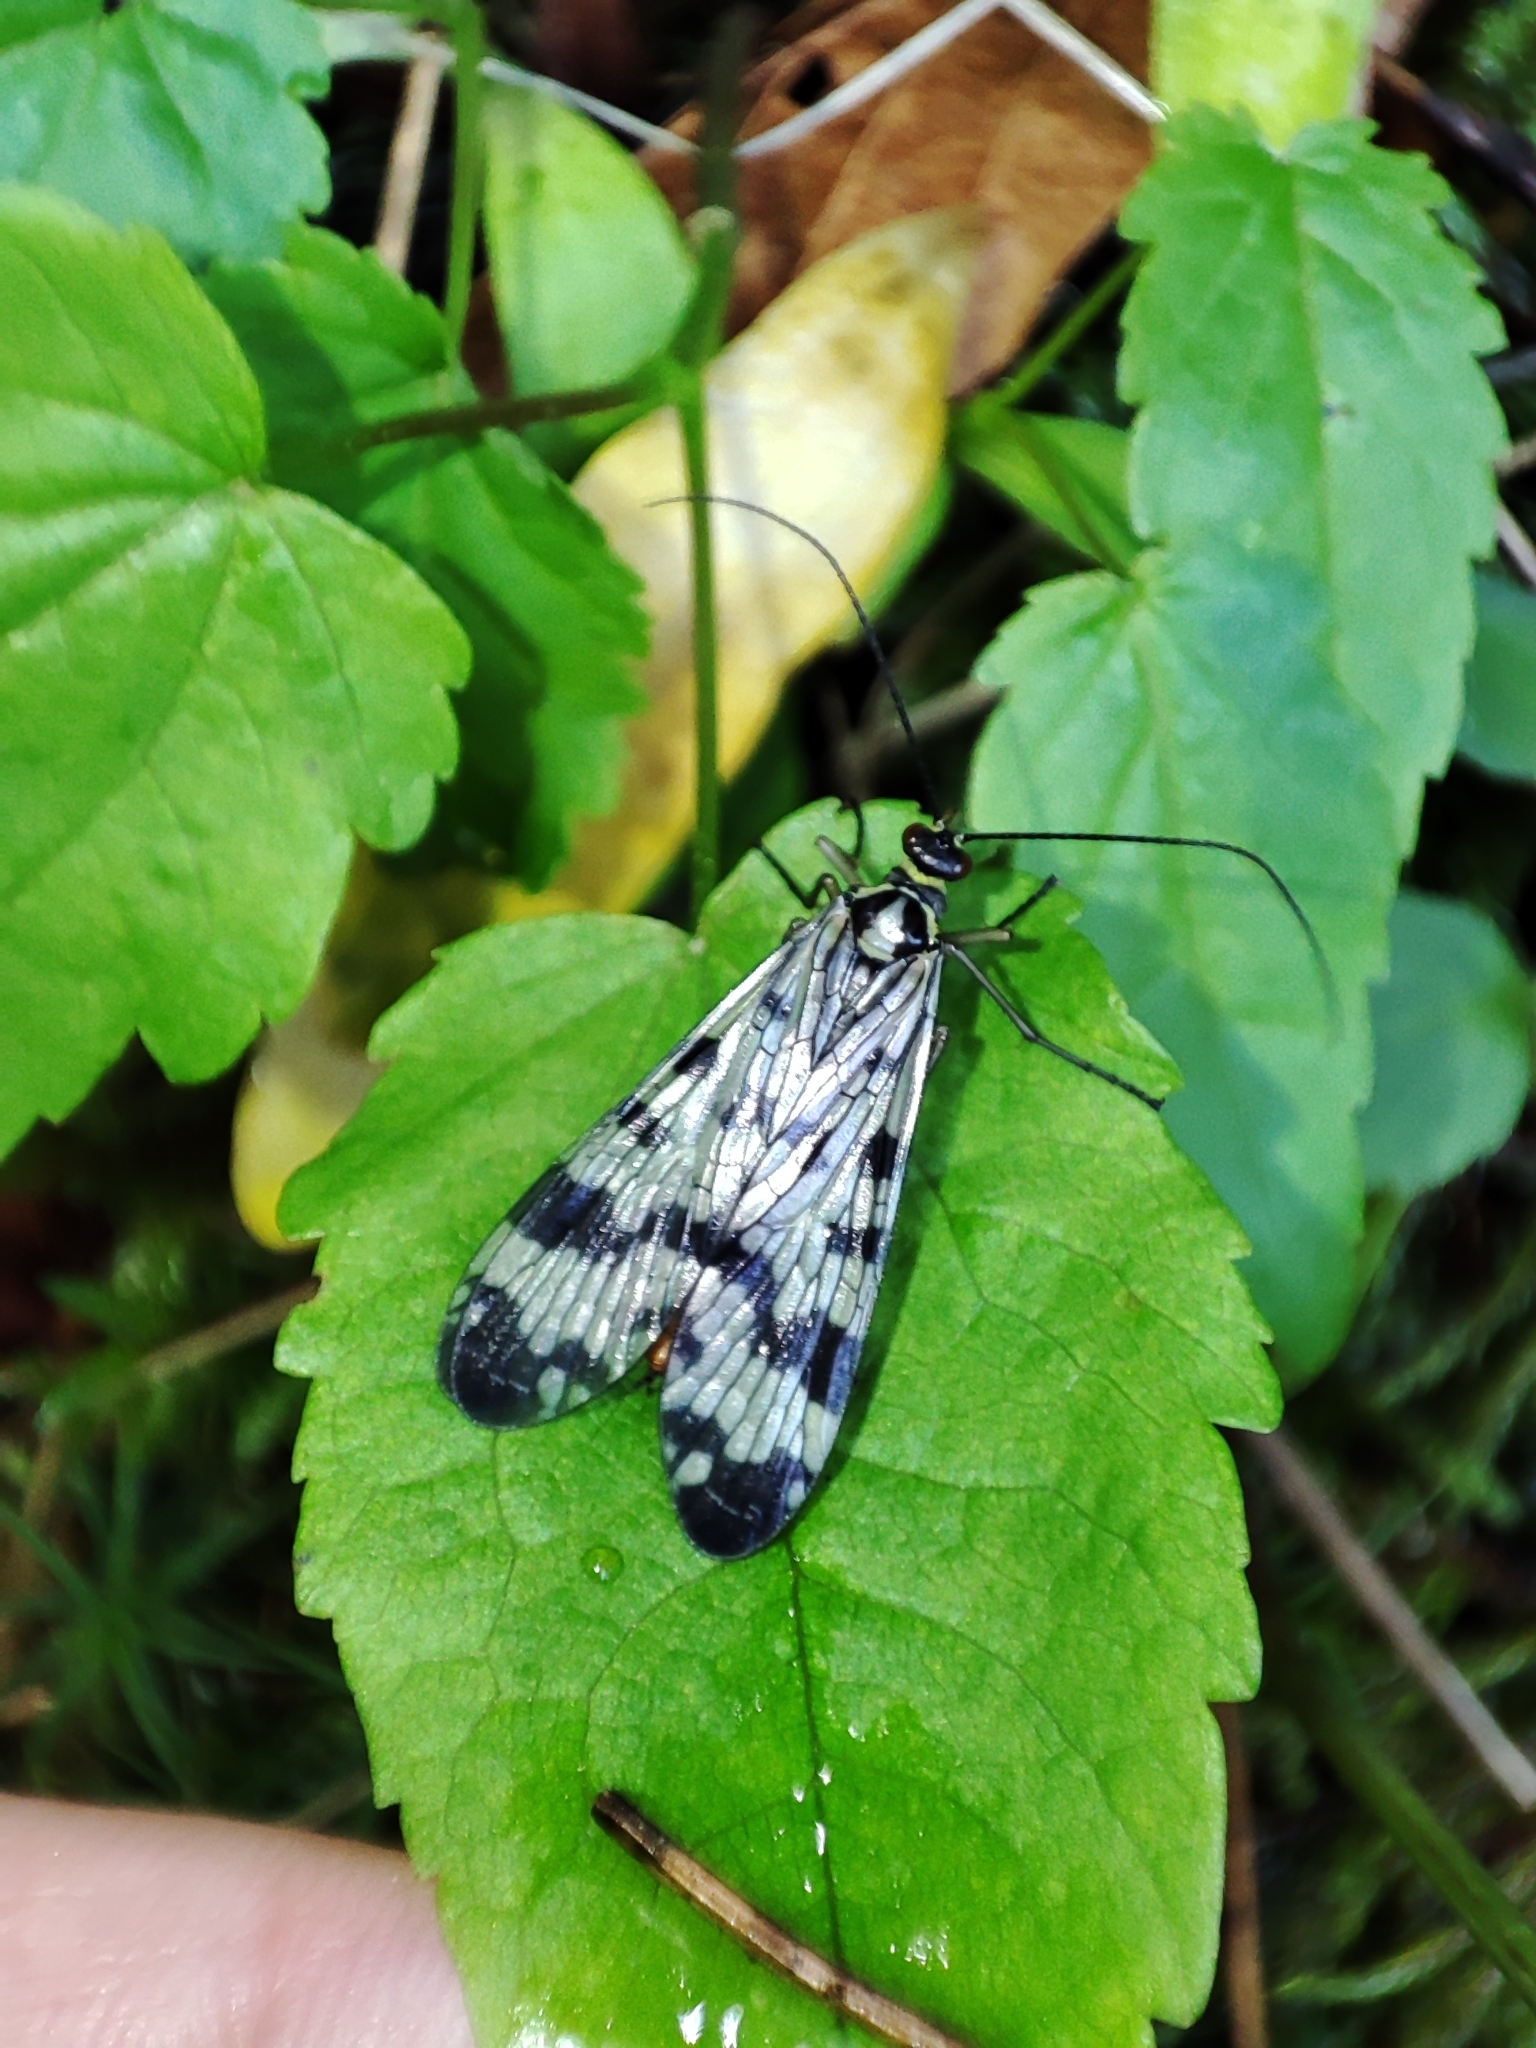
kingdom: Animalia
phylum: Arthropoda
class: Insecta
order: Mecoptera
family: Panorpidae
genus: Panorpa
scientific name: Panorpa communis
